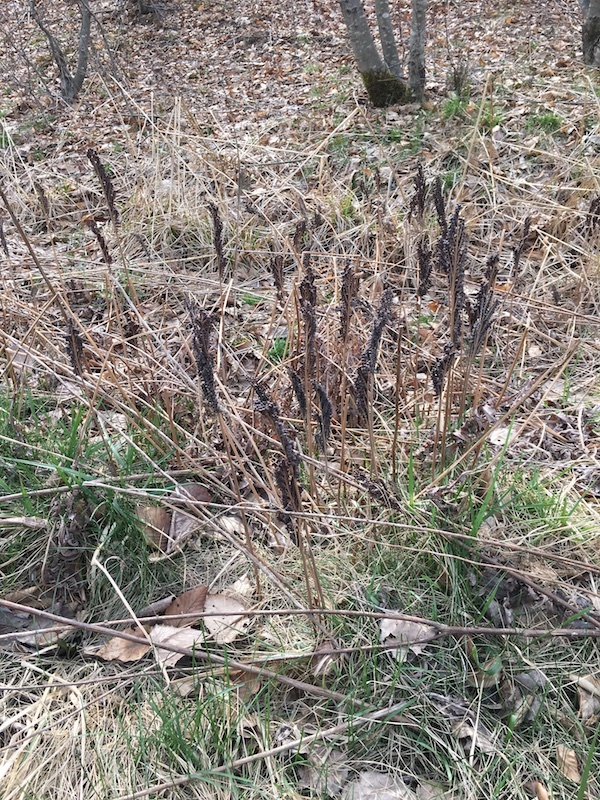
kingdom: Plantae
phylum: Tracheophyta
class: Polypodiopsida
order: Polypodiales
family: Onocleaceae
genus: Onoclea
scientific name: Onoclea sensibilis
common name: Sensitive fern
